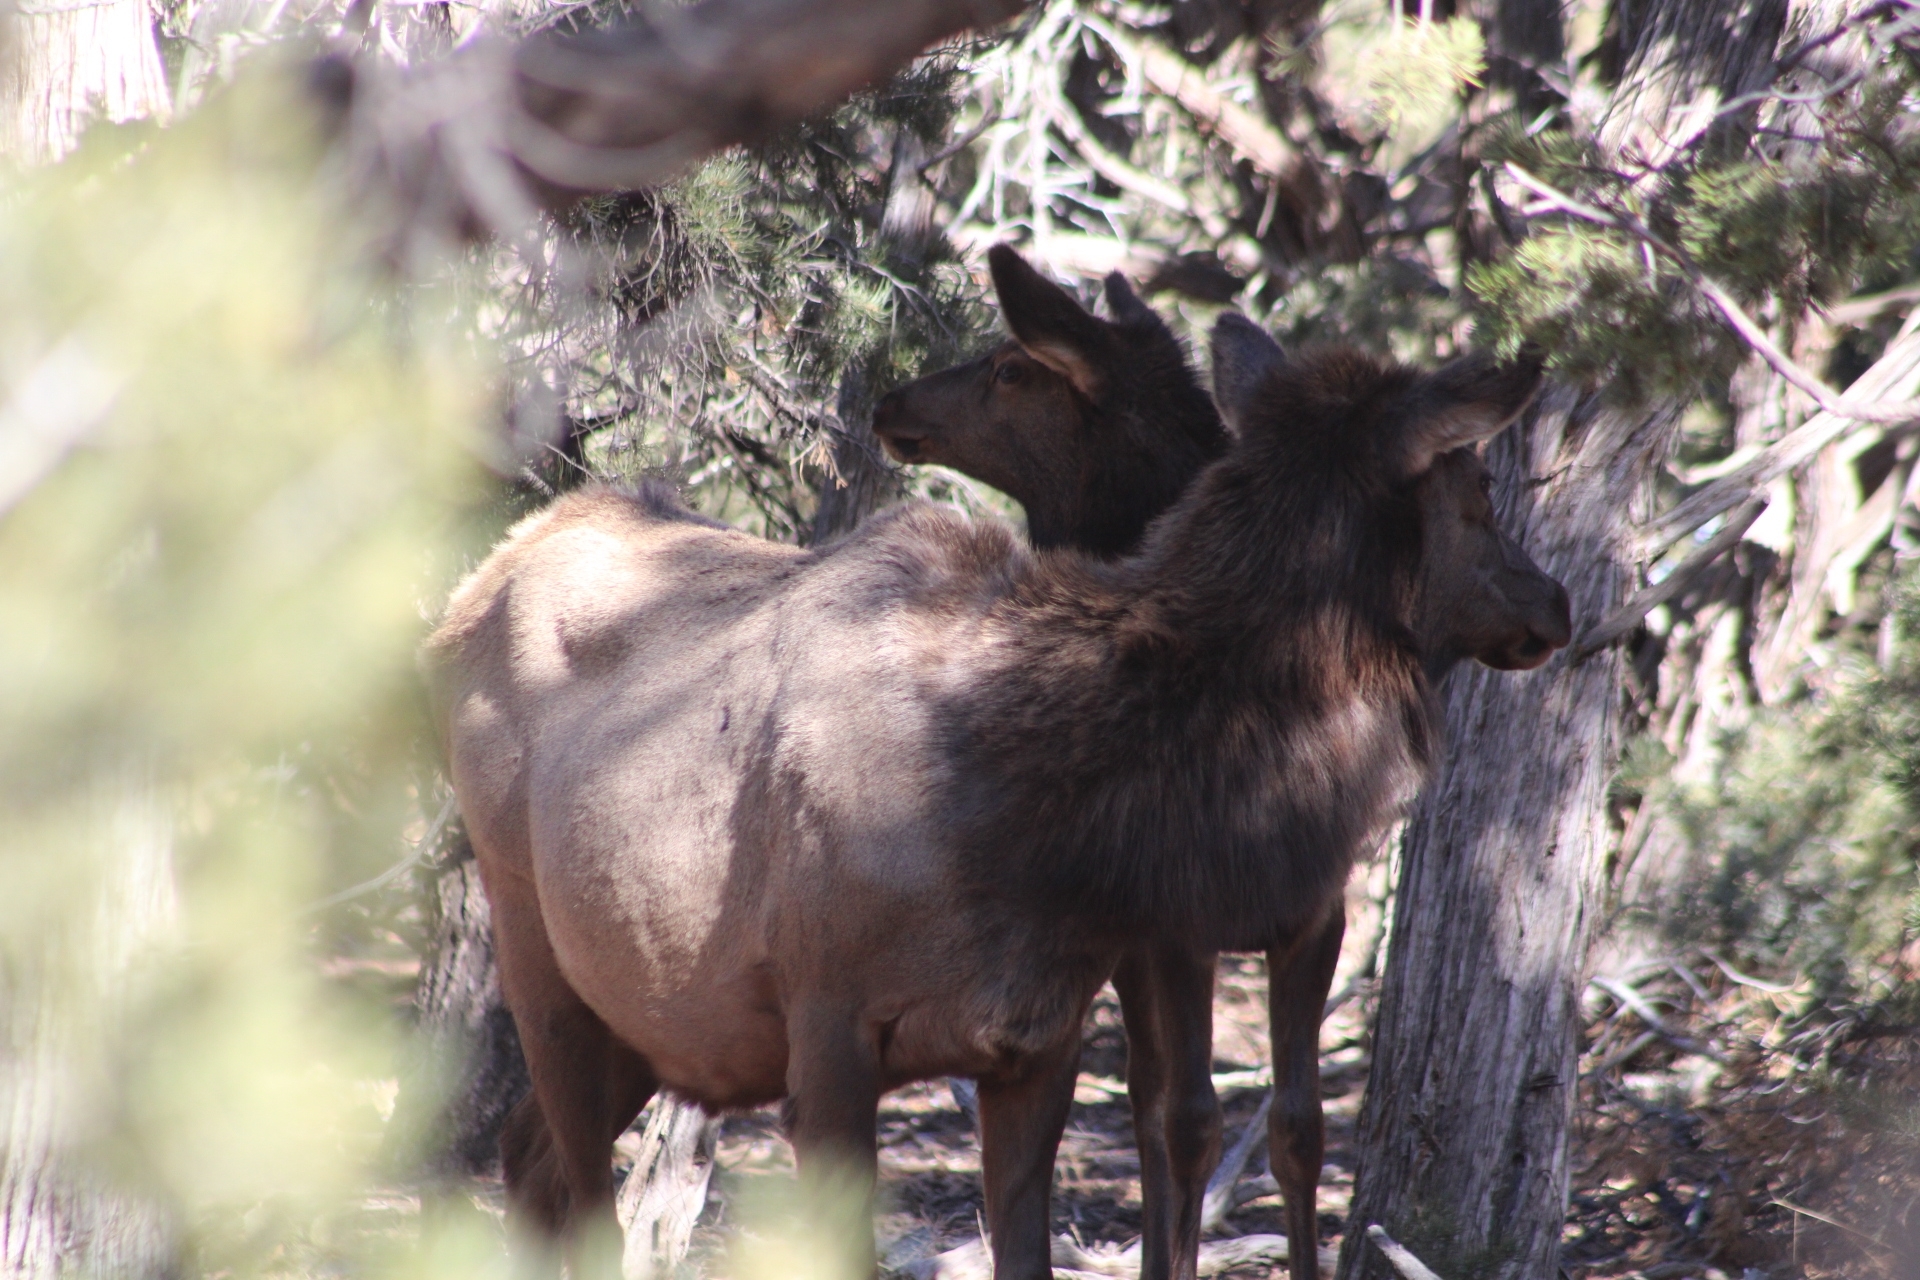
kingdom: Animalia
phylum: Chordata
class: Mammalia
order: Artiodactyla
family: Cervidae
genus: Cervus
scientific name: Cervus elaphus
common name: Red deer
